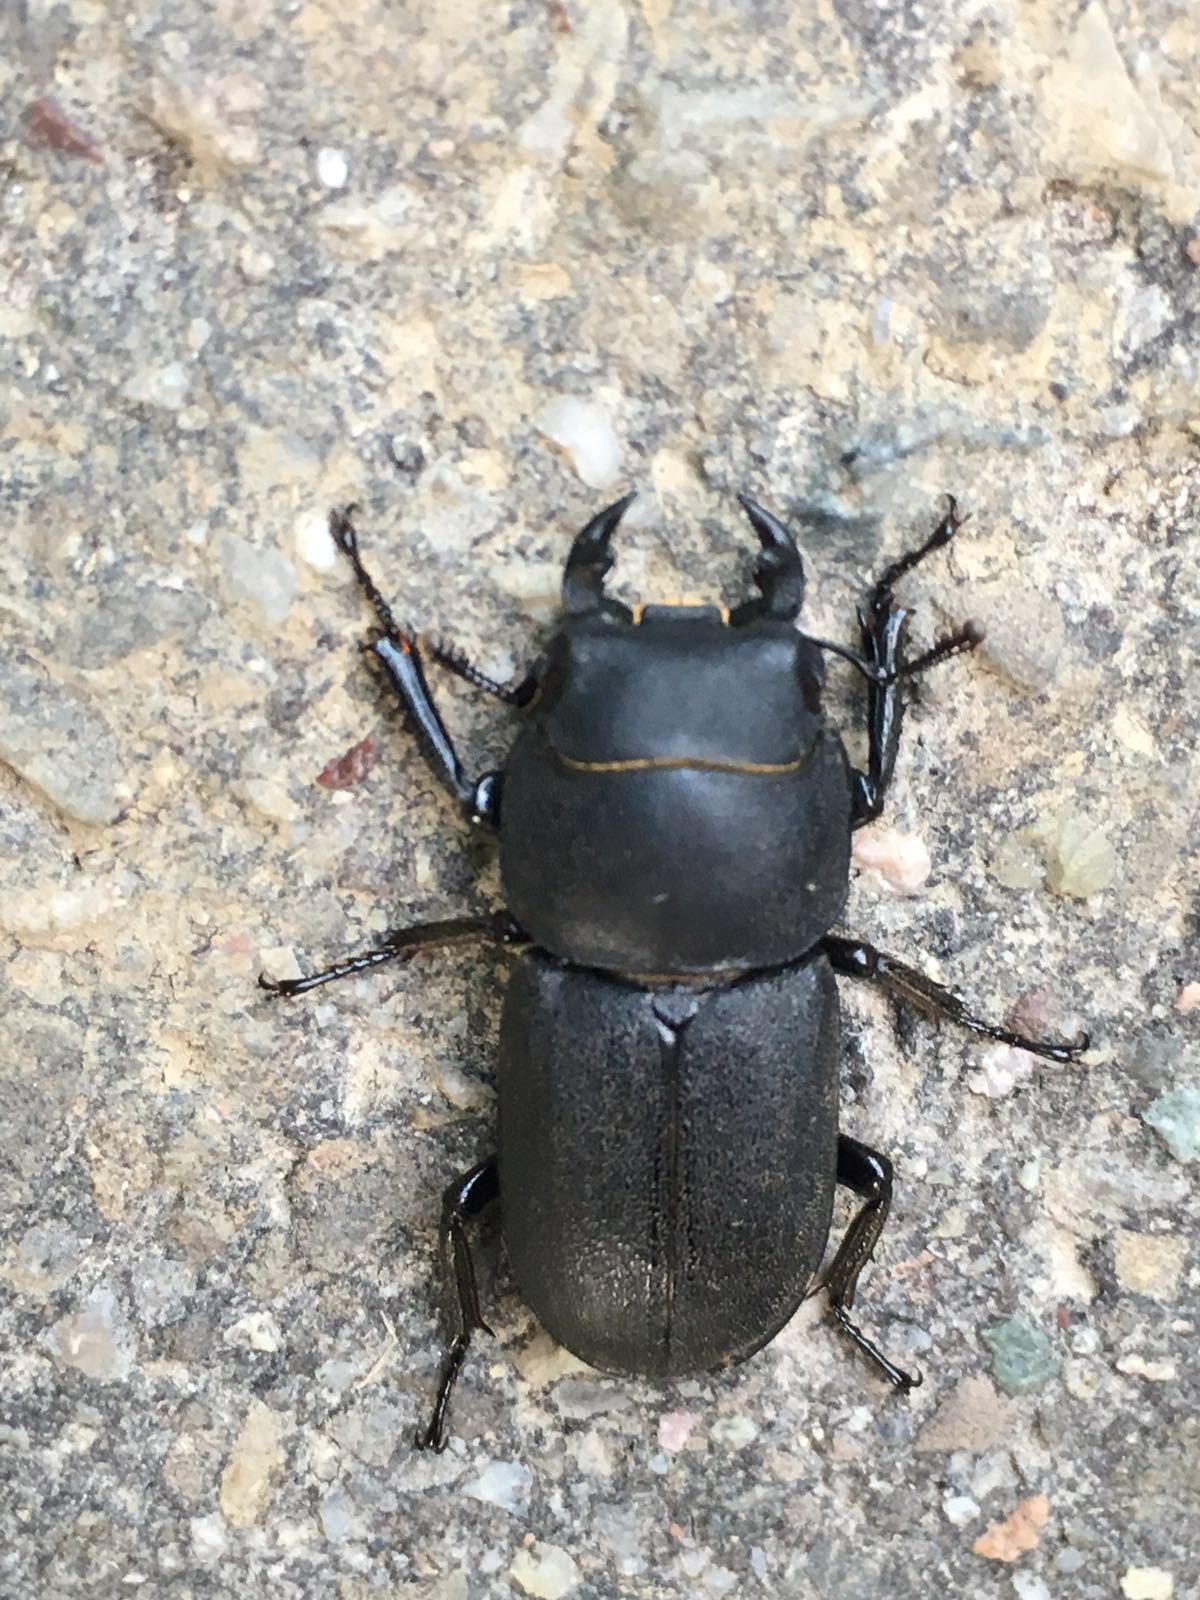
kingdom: Animalia
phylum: Arthropoda
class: Insecta
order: Coleoptera
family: Lucanidae
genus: Dorcus
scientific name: Dorcus parallelipipedus
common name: Lesser stag beetle
